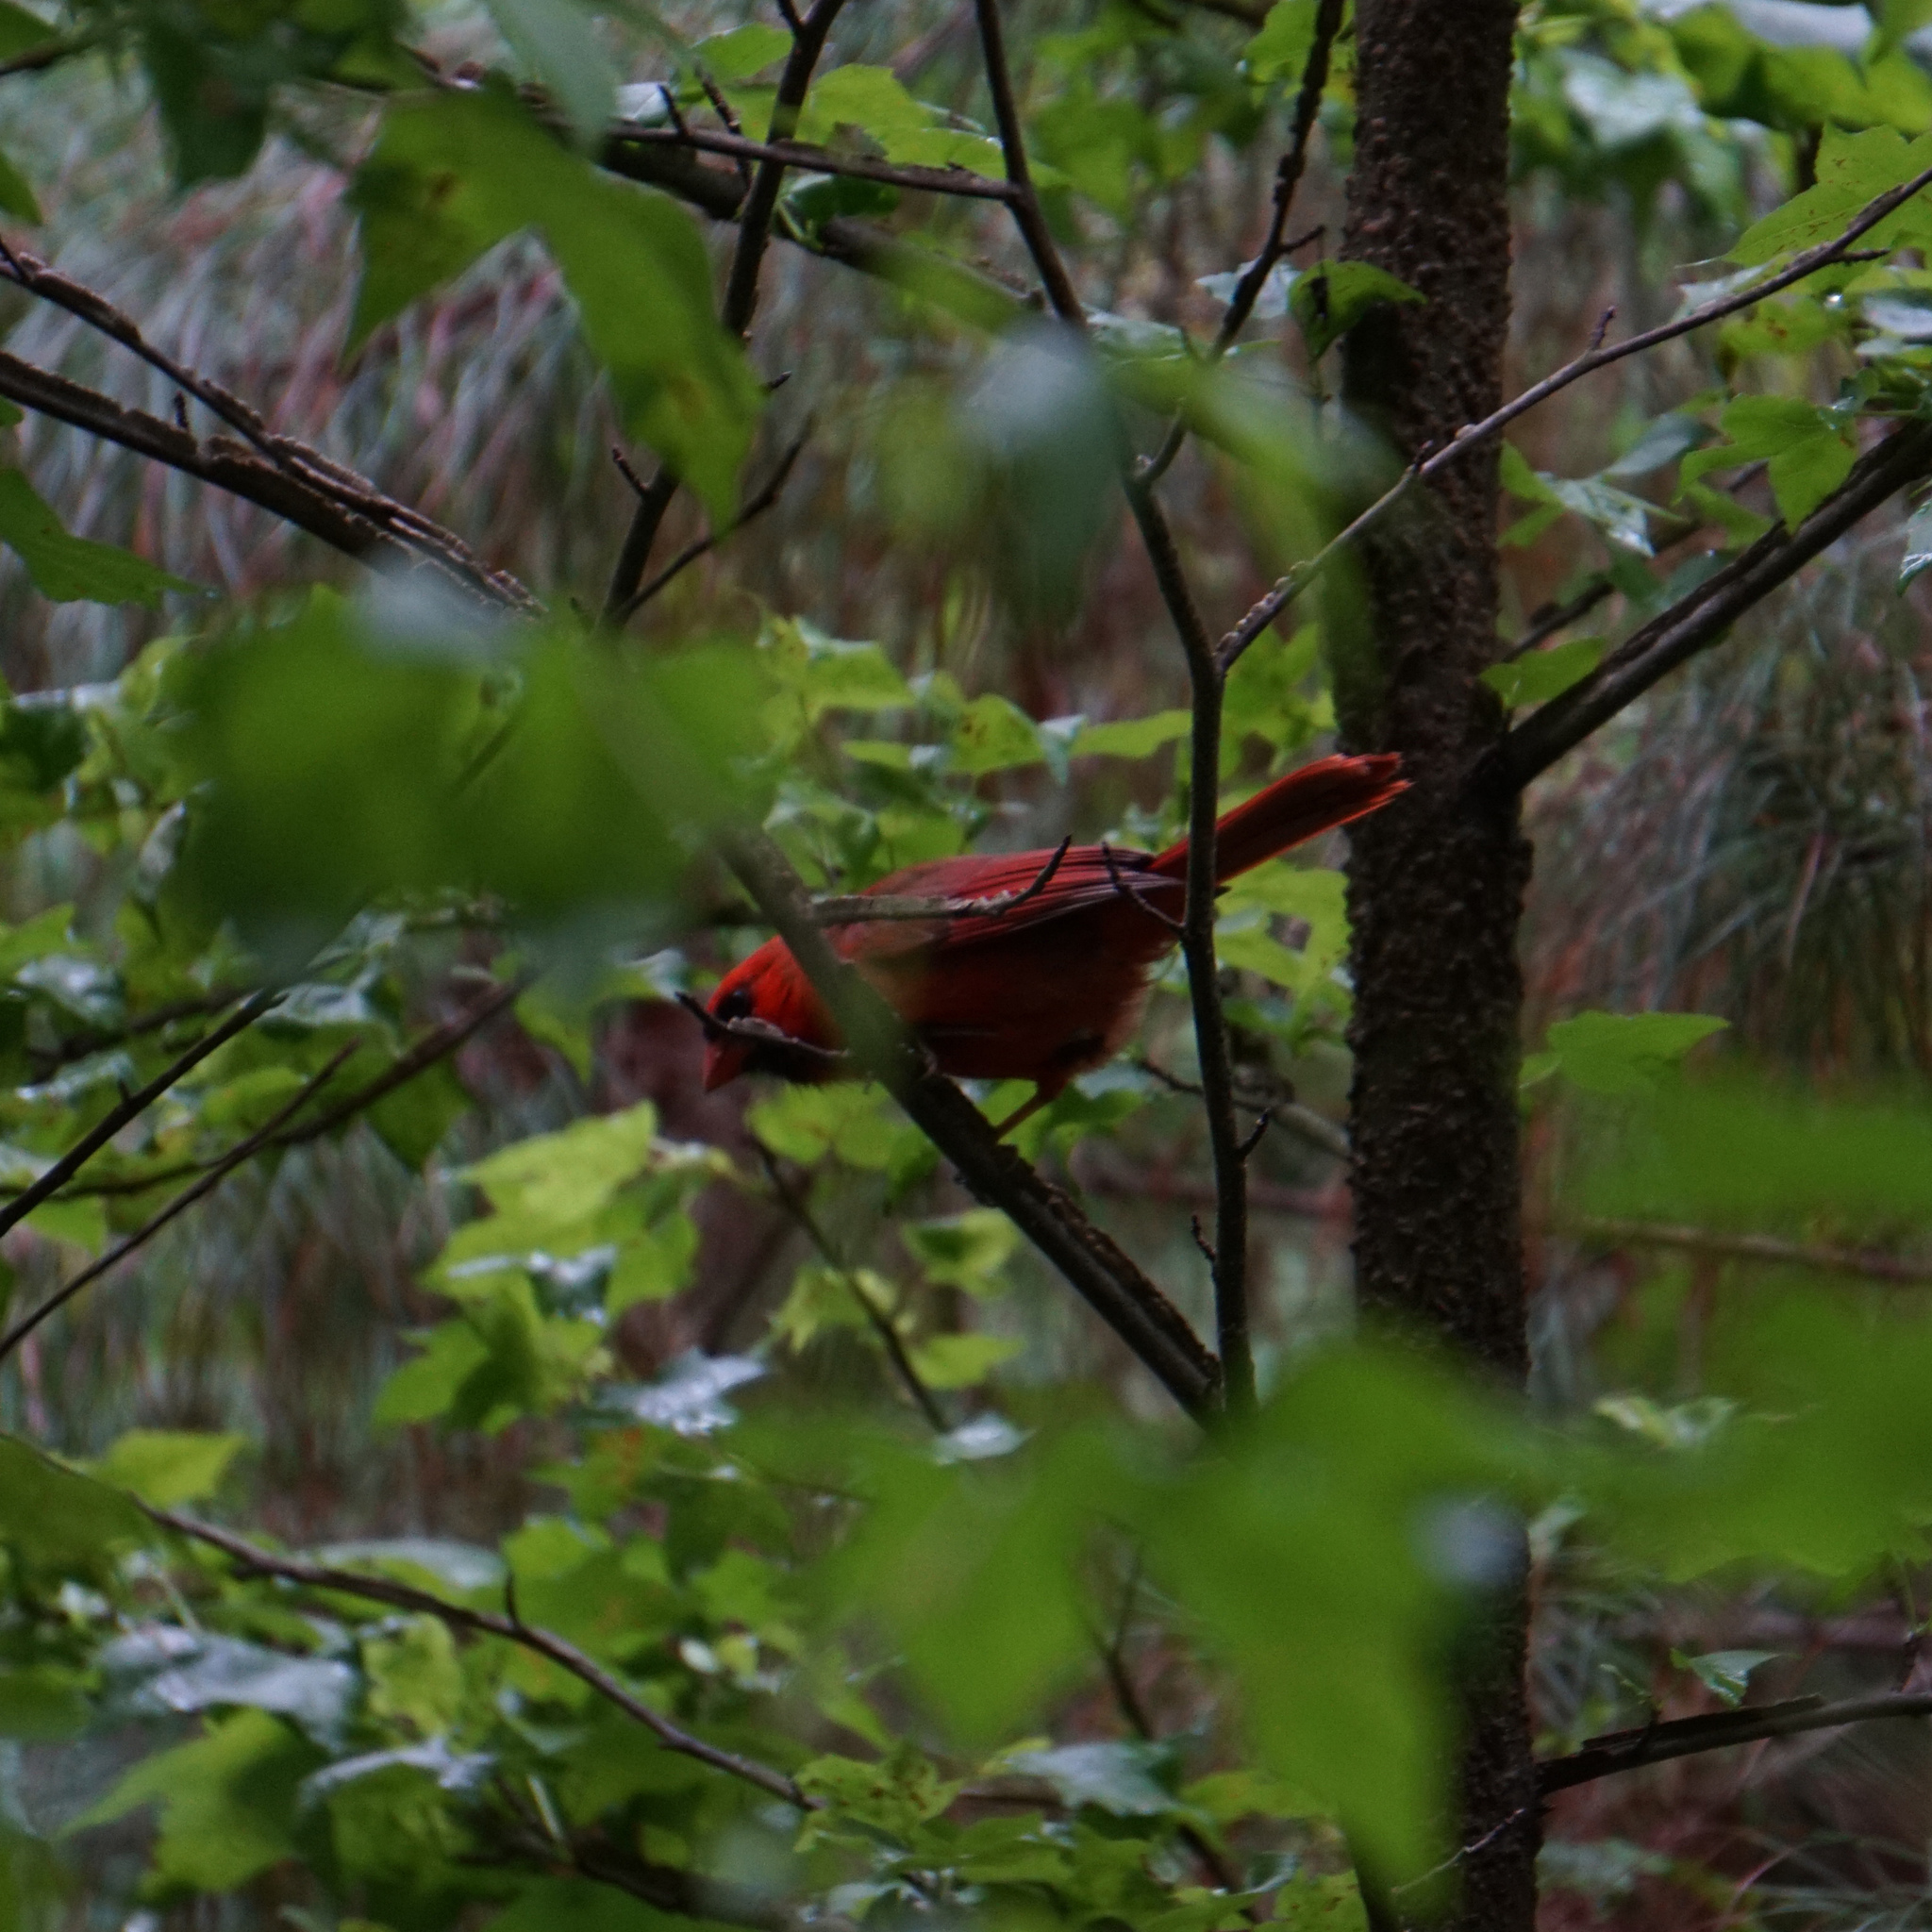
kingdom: Animalia
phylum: Chordata
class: Aves
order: Passeriformes
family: Cardinalidae
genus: Cardinalis
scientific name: Cardinalis cardinalis
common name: Northern cardinal
